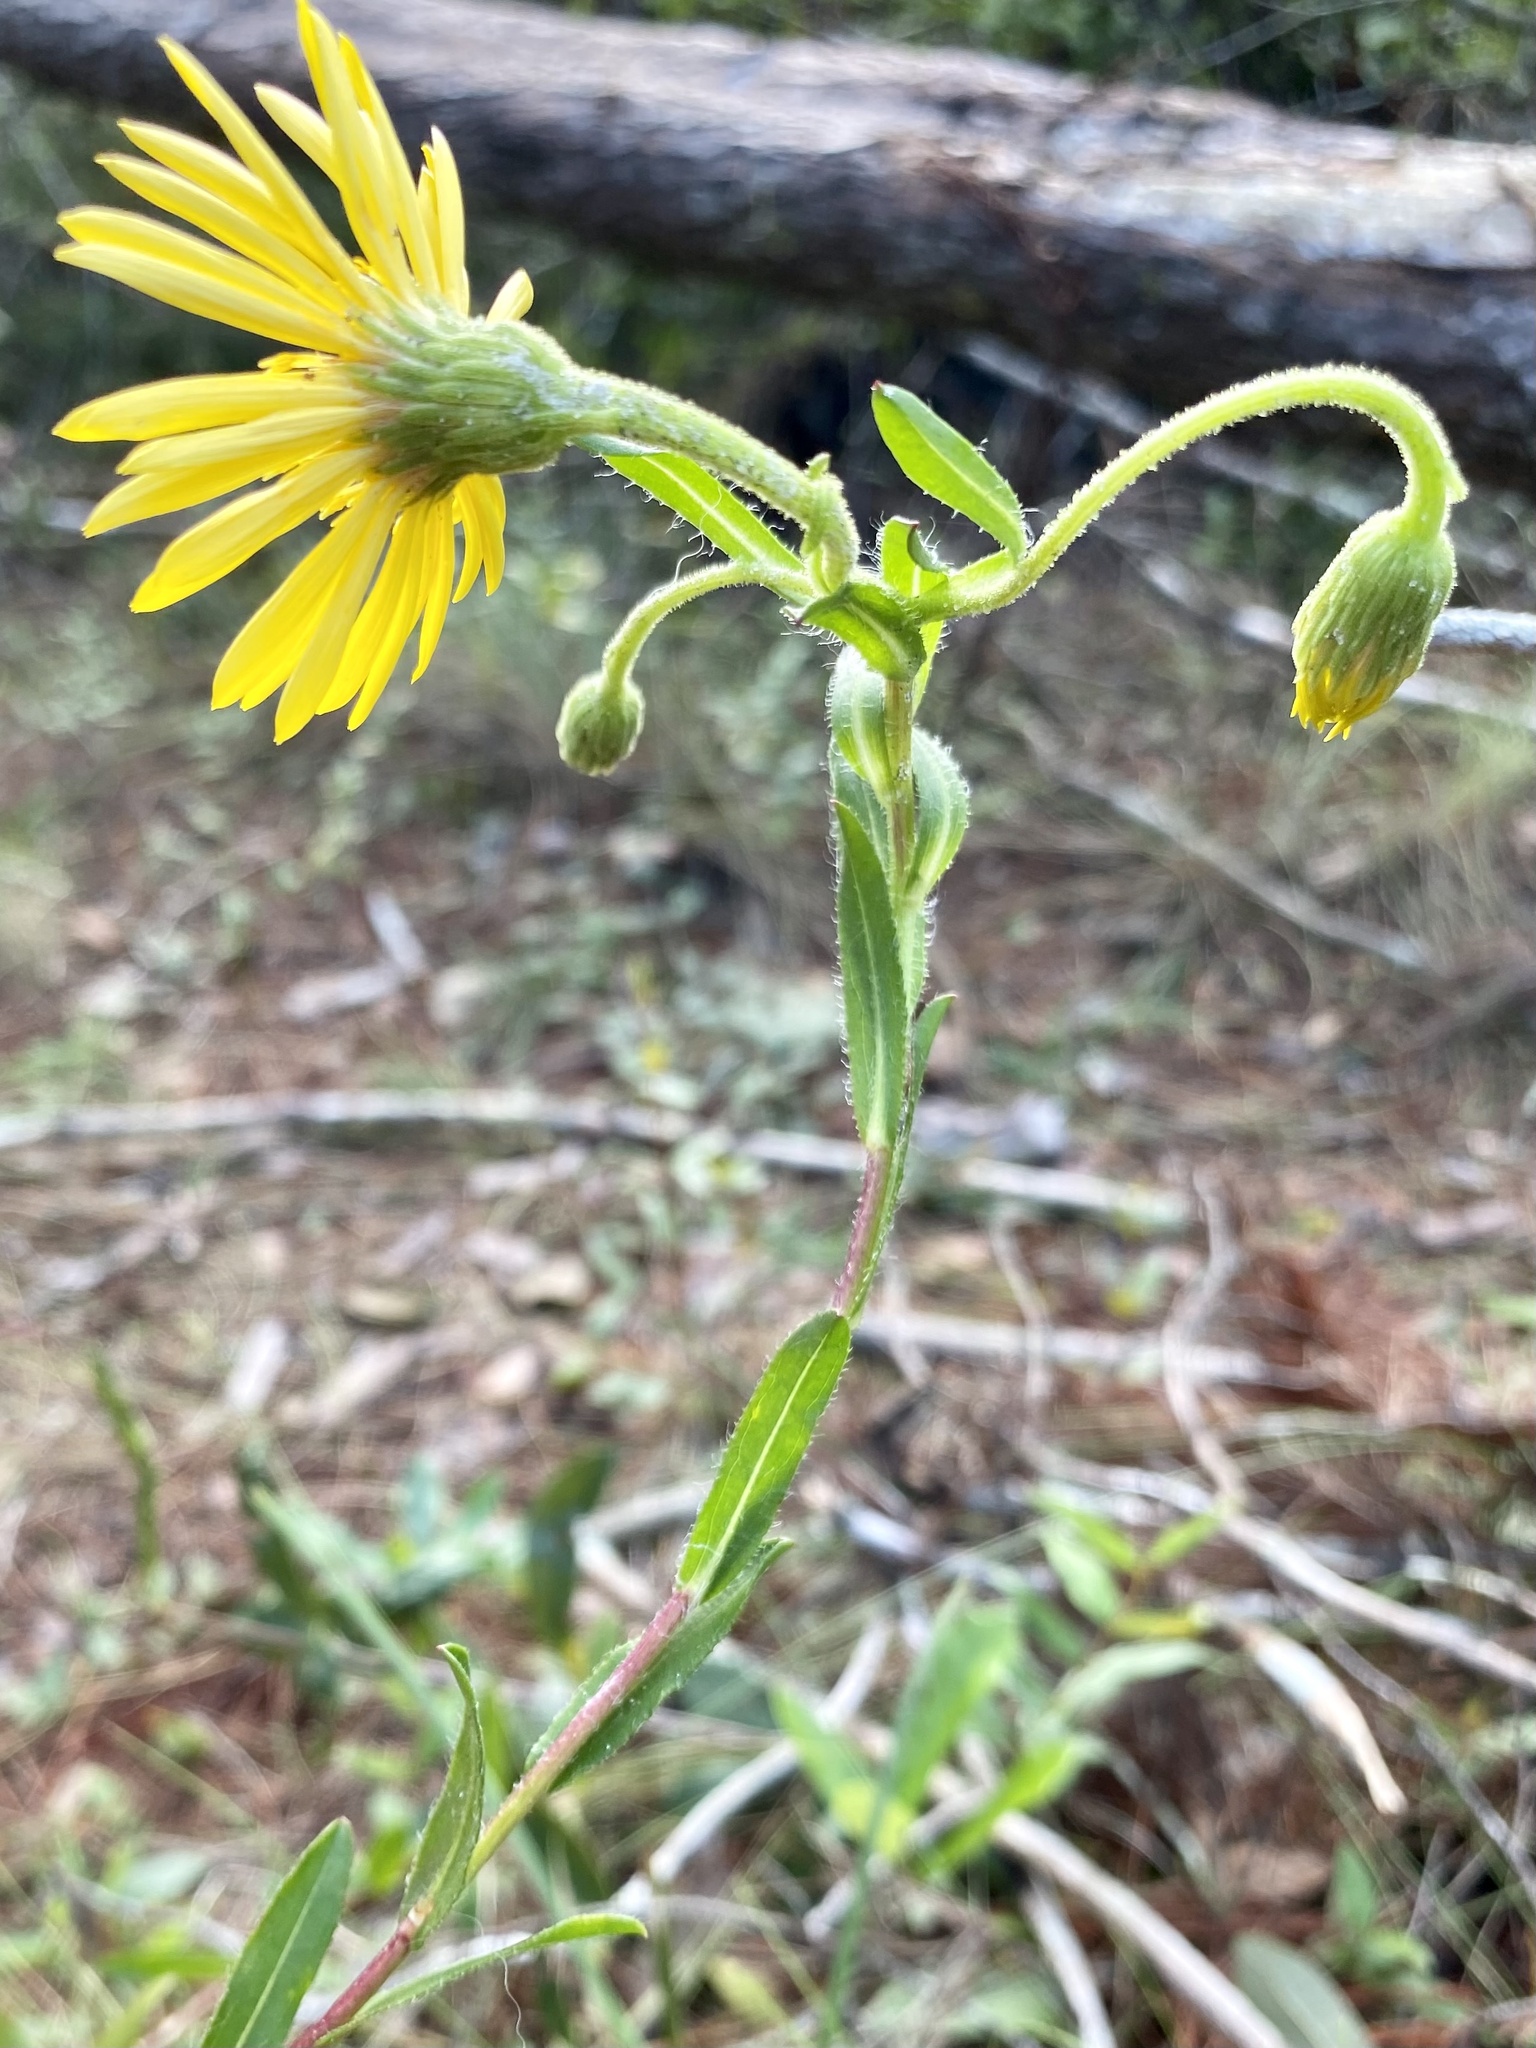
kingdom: Plantae
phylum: Tracheophyta
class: Magnoliopsida
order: Asterales
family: Asteraceae
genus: Chrysopsis
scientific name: Chrysopsis mariana
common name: Maryland golden-aster
